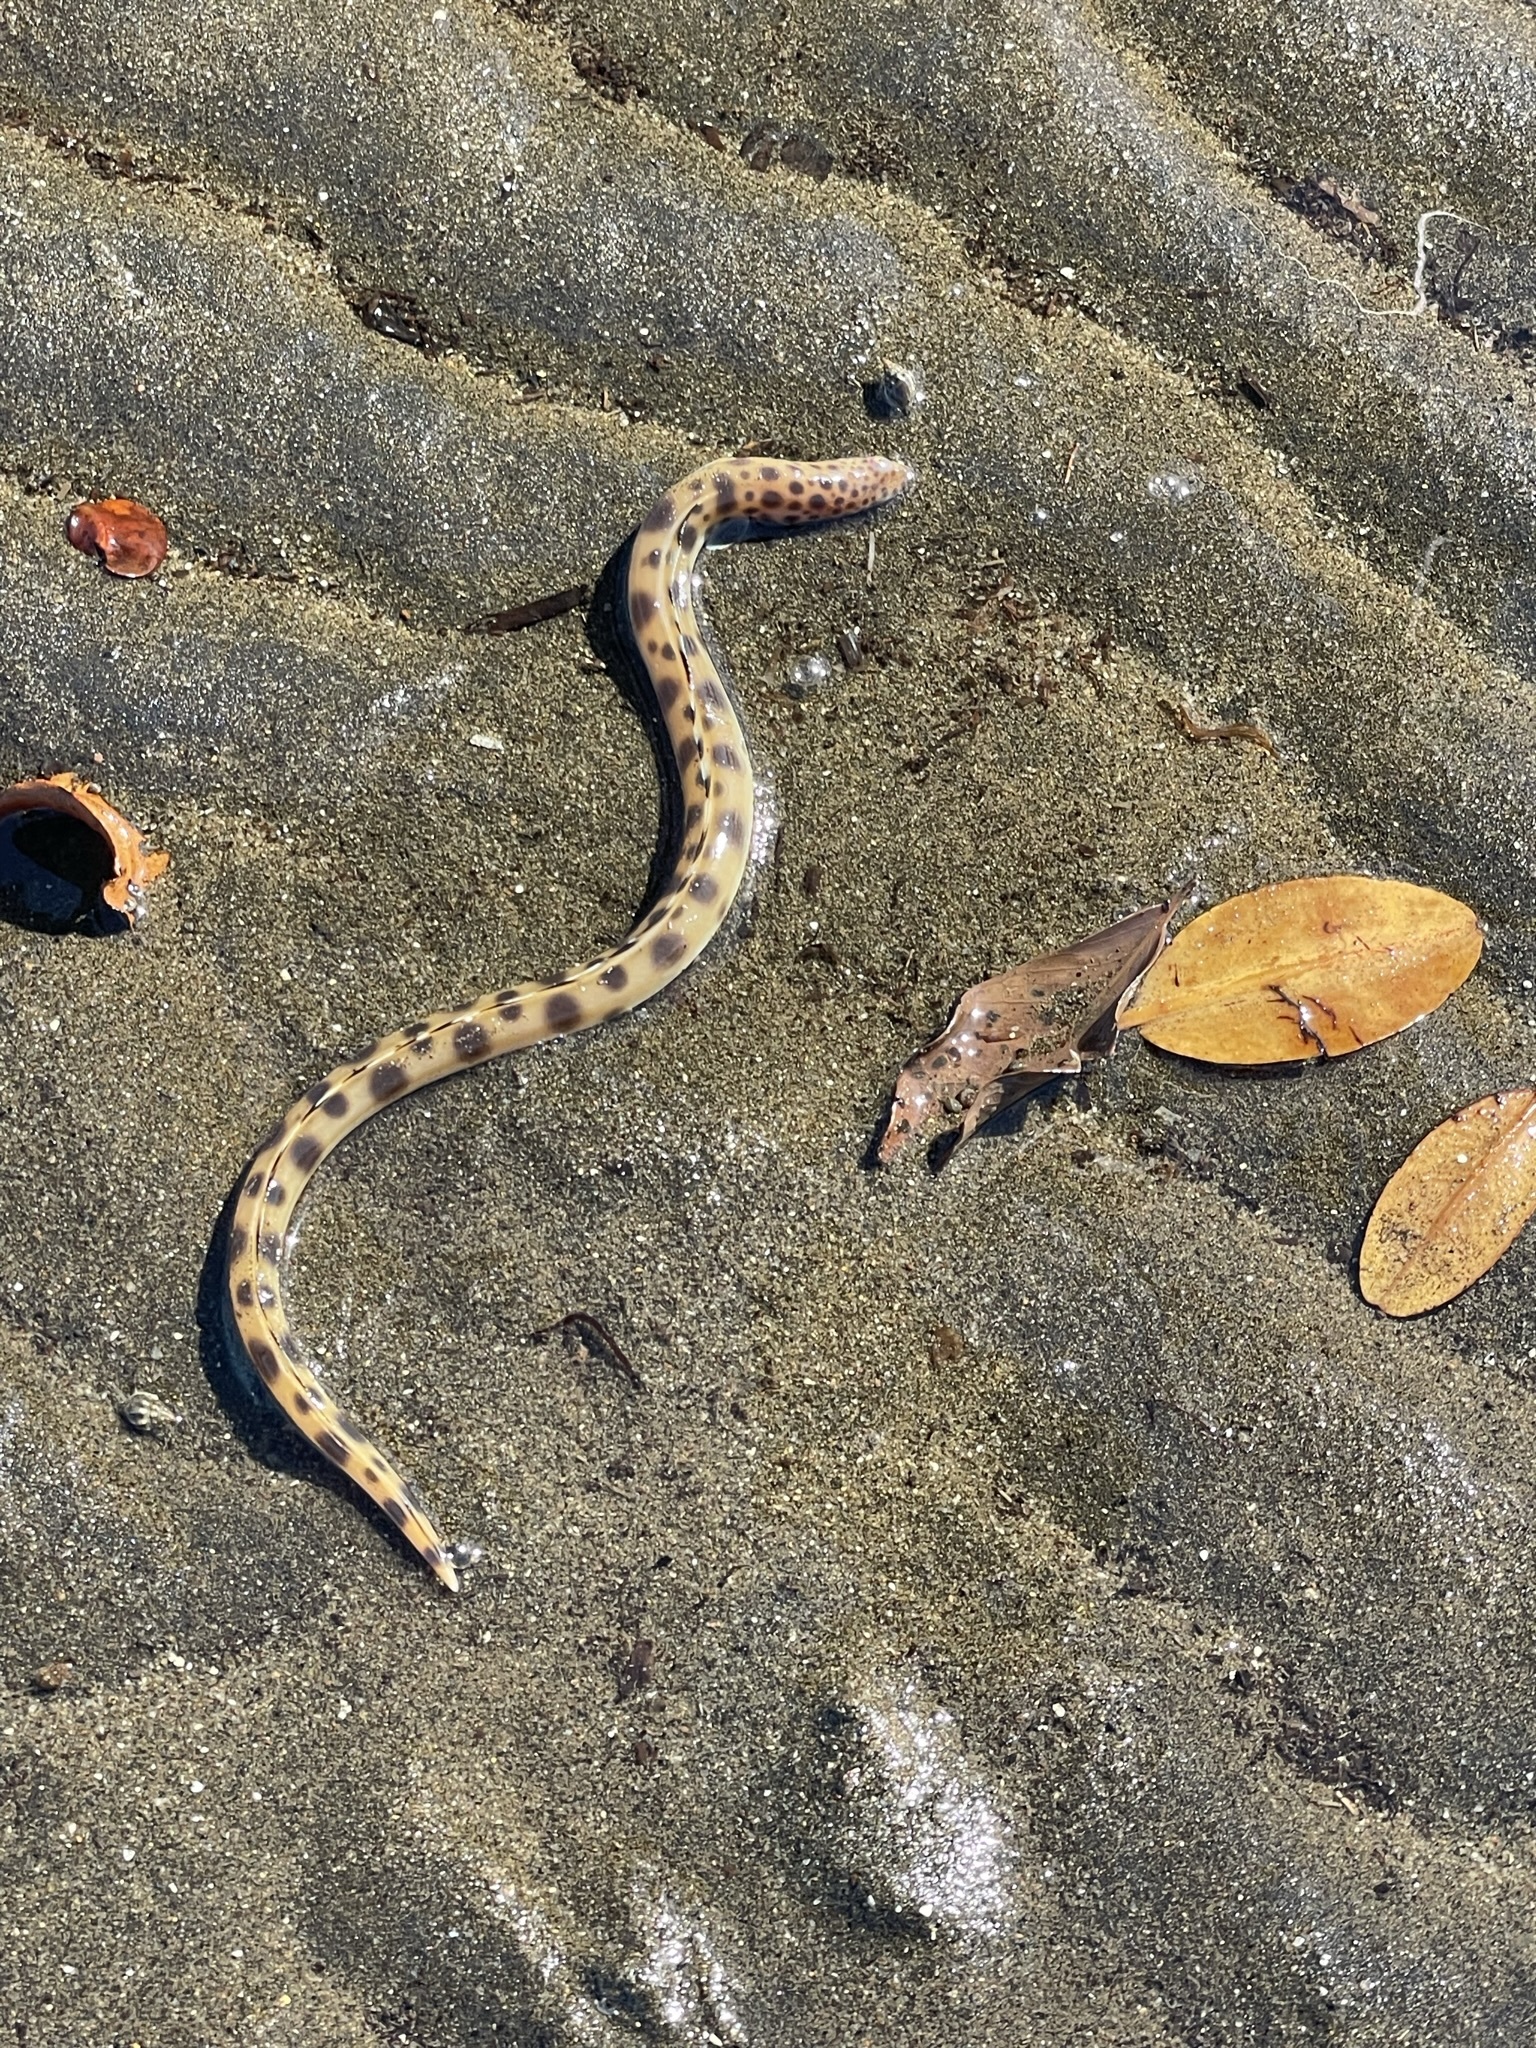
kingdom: Animalia
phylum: Chordata
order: Anguilliformes
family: Ophichthidae
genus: Myrichthys
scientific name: Myrichthys xysturus
